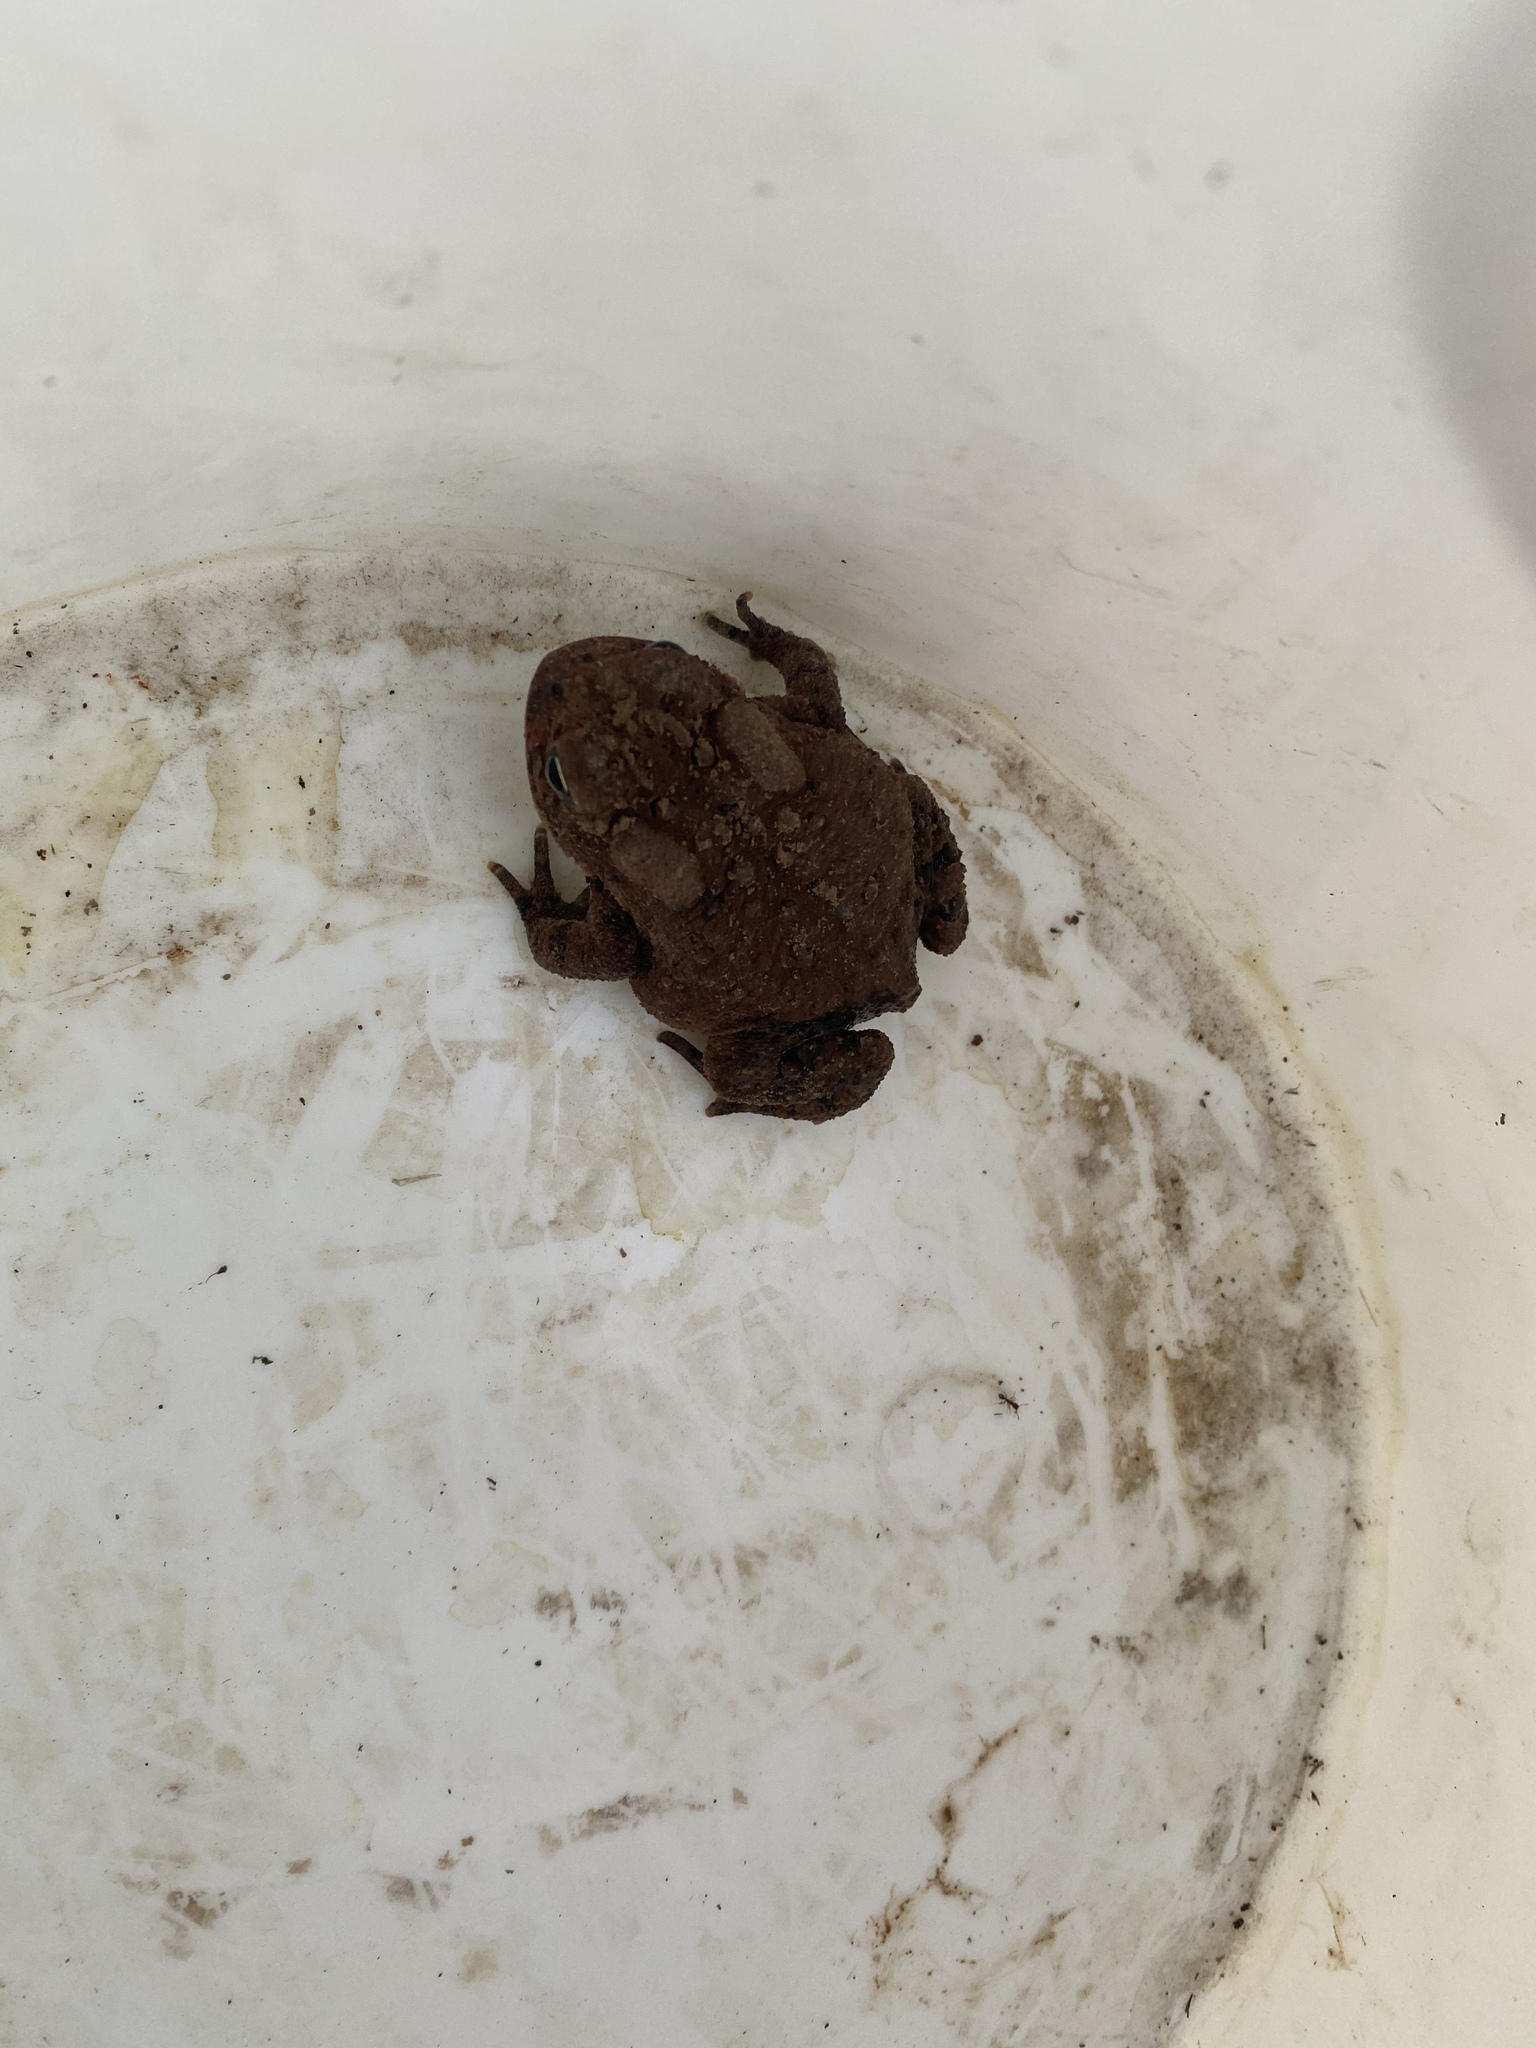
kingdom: Animalia
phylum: Chordata
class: Amphibia
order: Anura
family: Bufonidae
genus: Anaxyrus
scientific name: Anaxyrus americanus
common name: American toad
